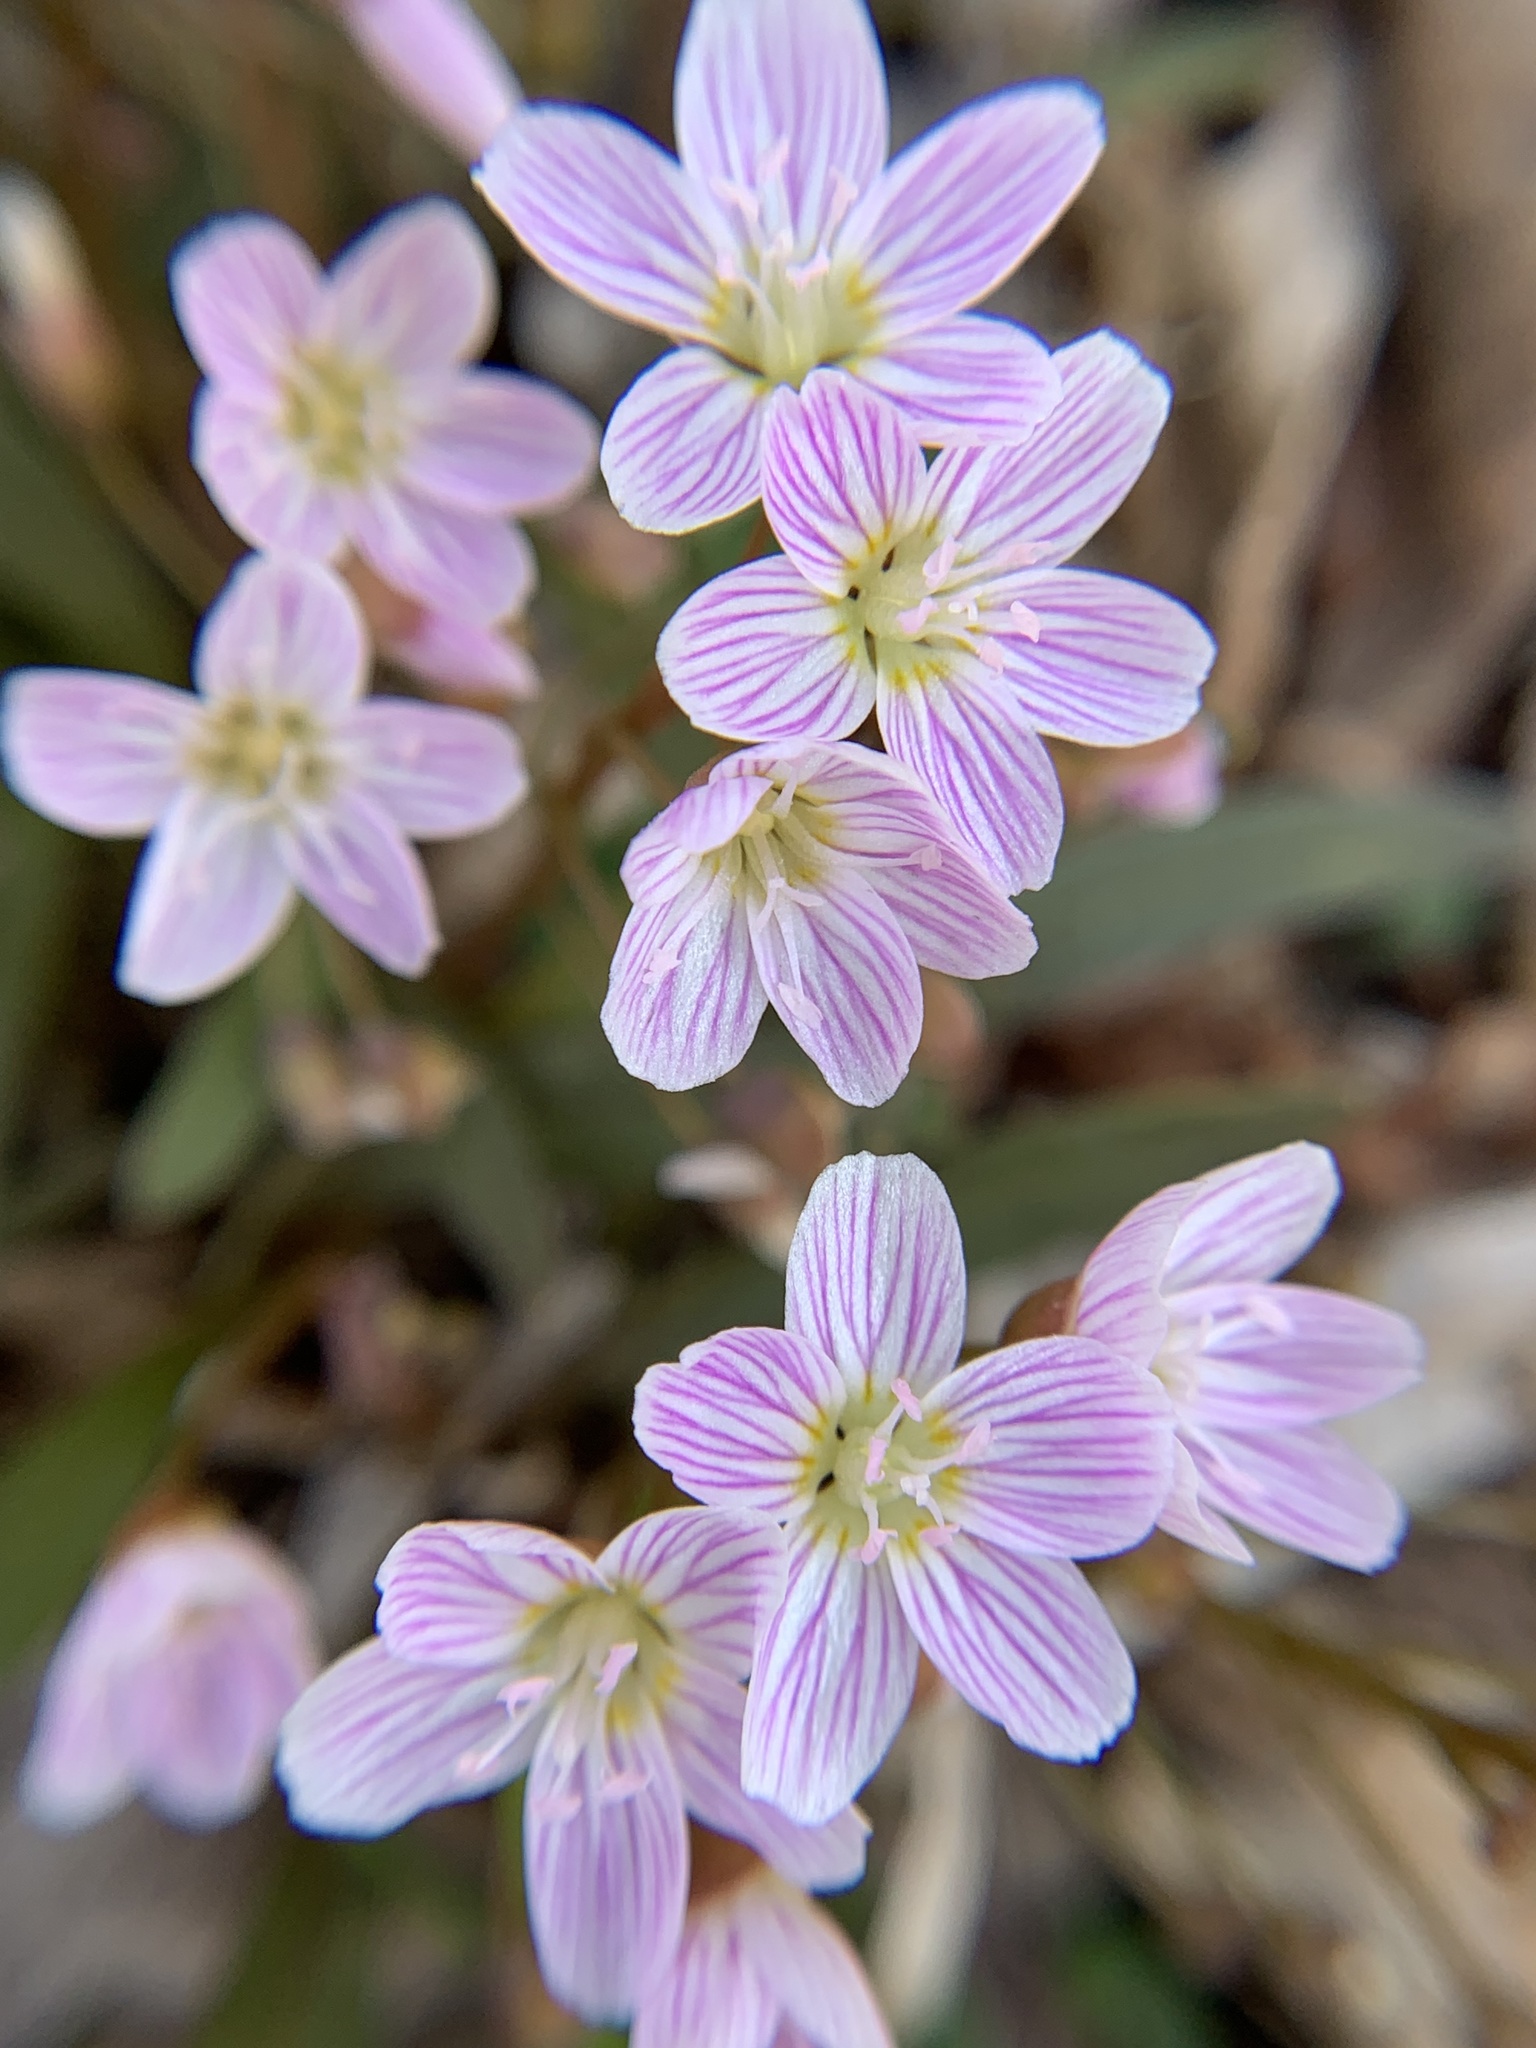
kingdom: Plantae
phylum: Tracheophyta
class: Magnoliopsida
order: Caryophyllales
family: Montiaceae
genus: Claytonia
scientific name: Claytonia virginica
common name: Virginia springbeauty
